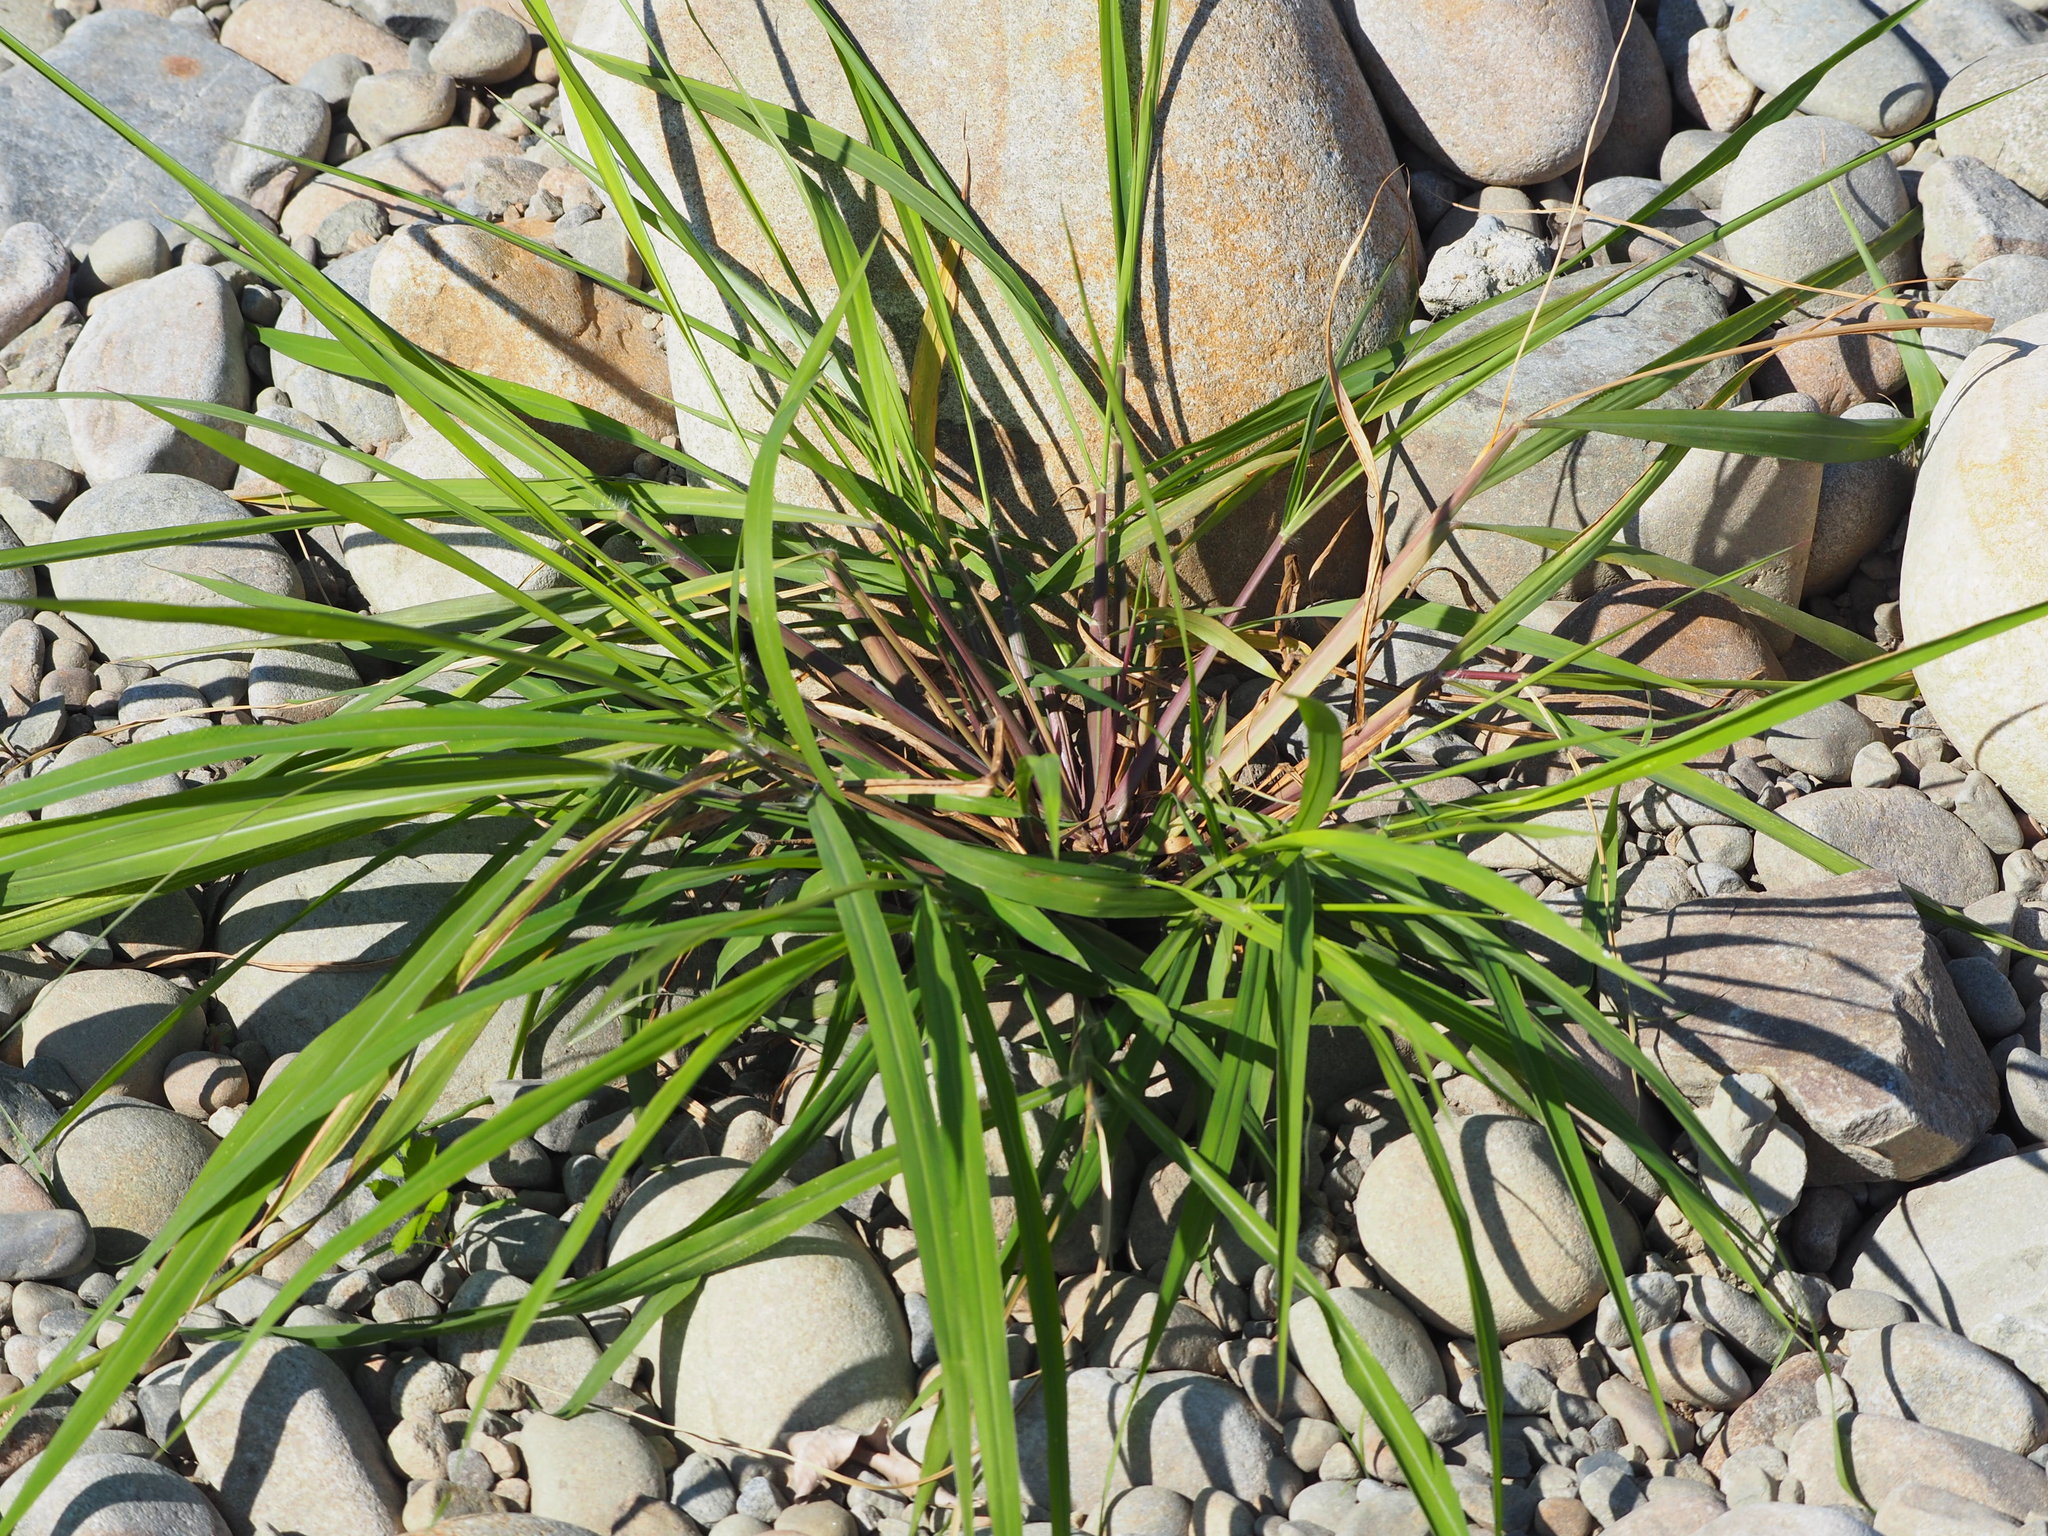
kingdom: Plantae
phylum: Tracheophyta
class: Liliopsida
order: Poales
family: Poaceae
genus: Megathyrsus
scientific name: Megathyrsus maximus
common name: Guineagrass
